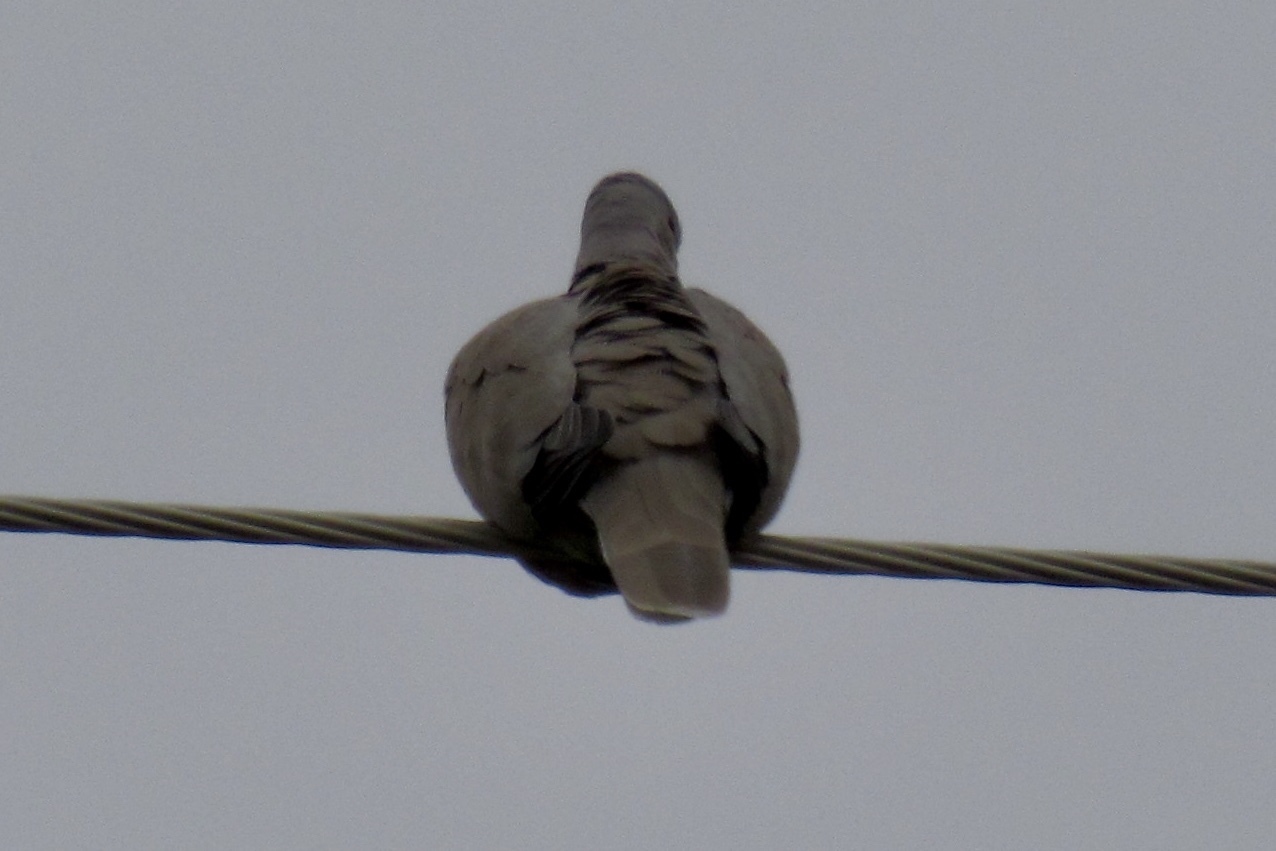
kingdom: Animalia
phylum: Chordata
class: Aves
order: Columbiformes
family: Columbidae
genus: Streptopelia
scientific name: Streptopelia decaocto
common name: Eurasian collared dove
